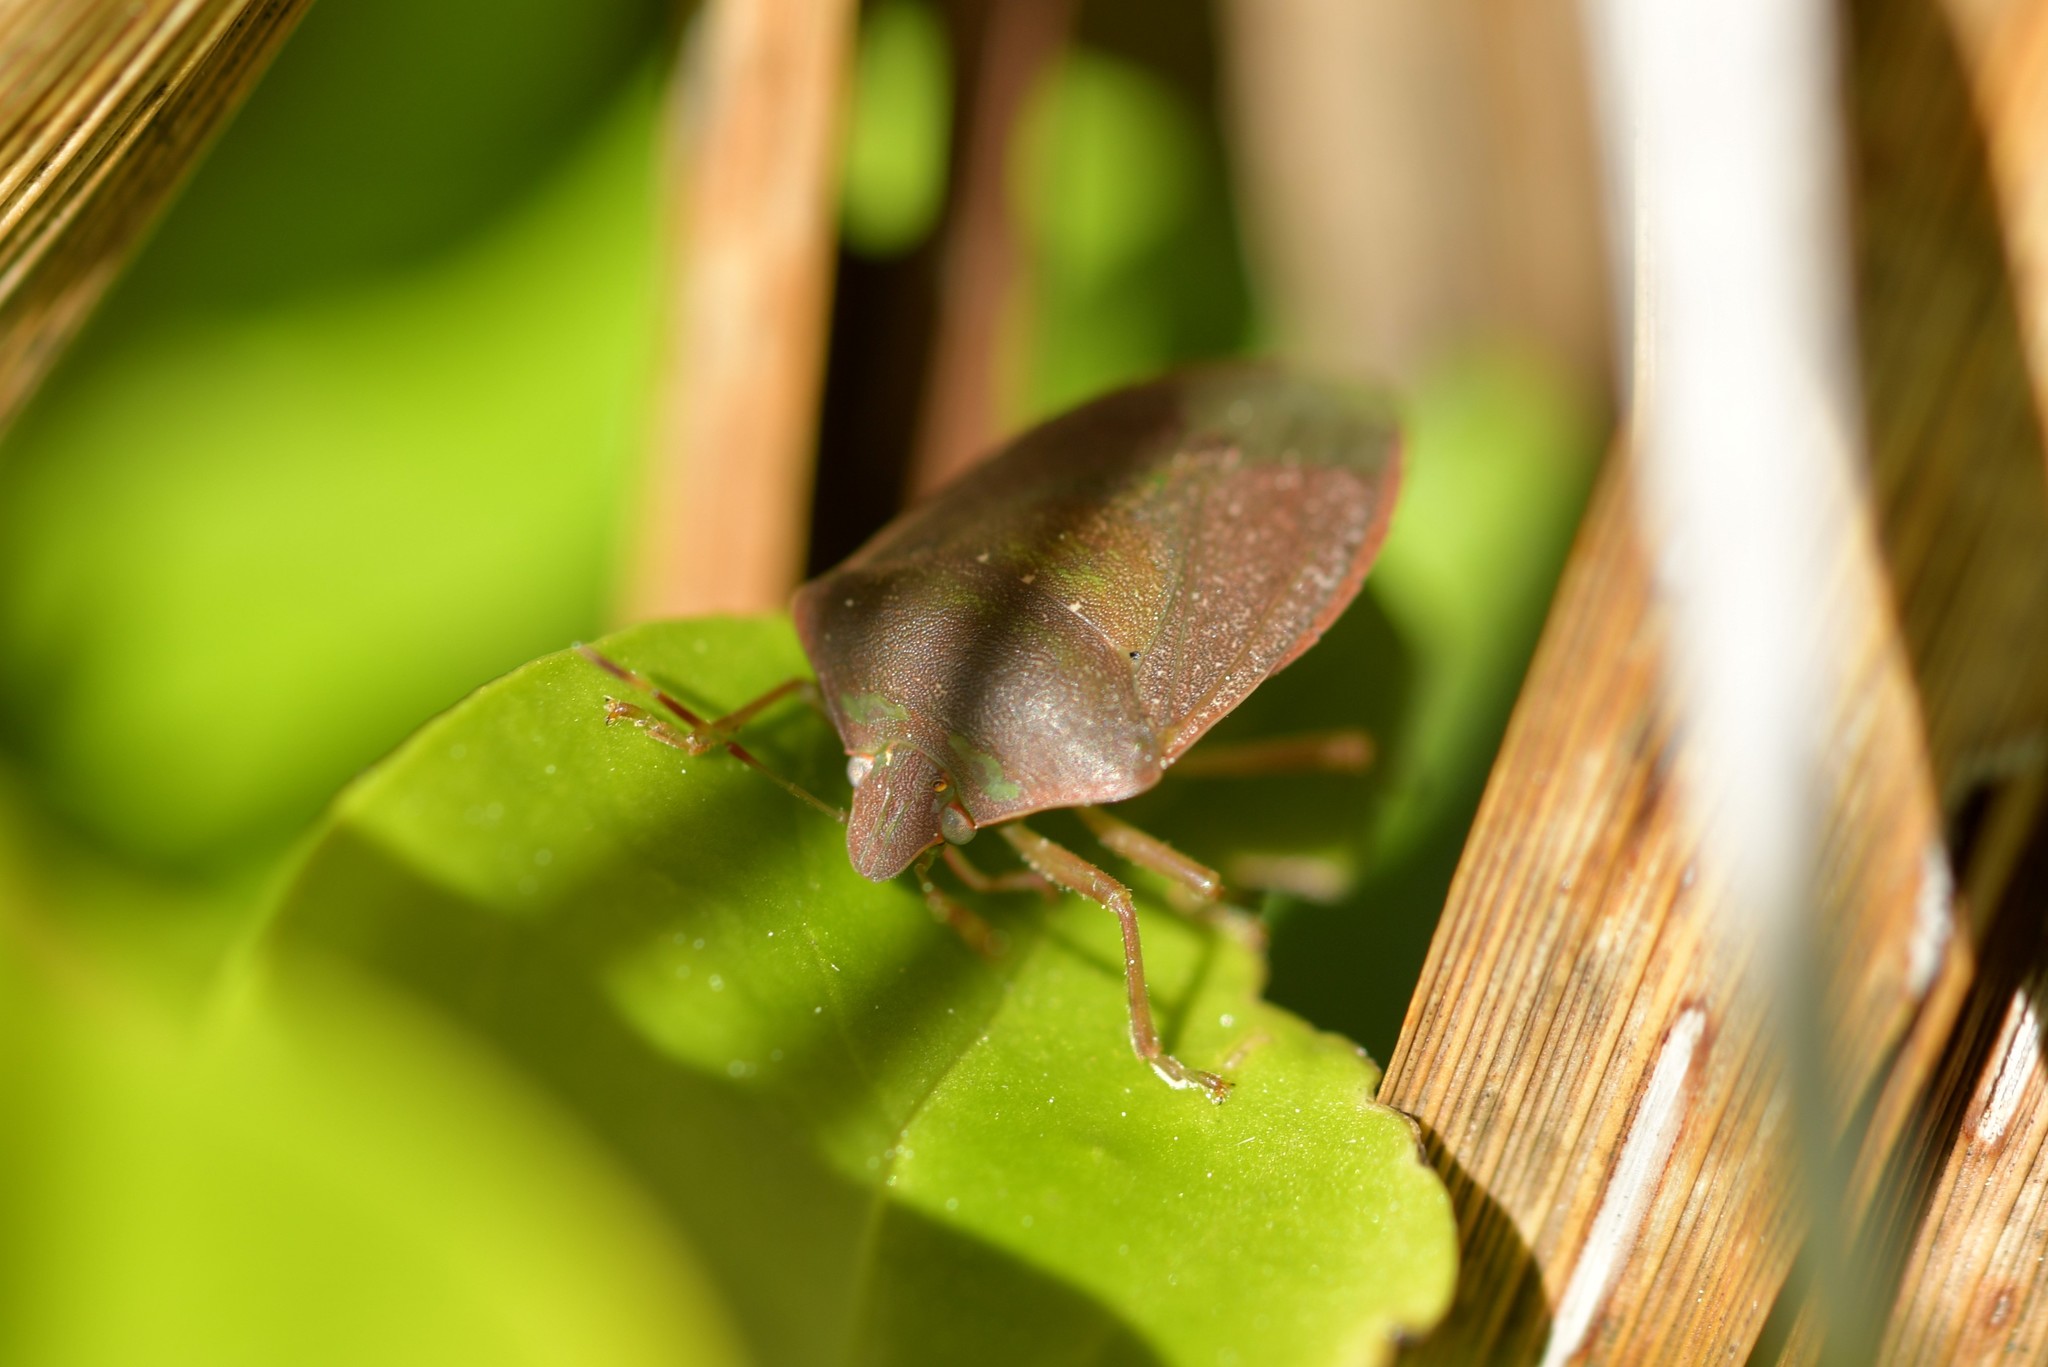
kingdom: Animalia
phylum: Arthropoda
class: Insecta
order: Hemiptera
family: Pentatomidae
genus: Nezara
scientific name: Nezara viridula
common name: Southern green stink bug
